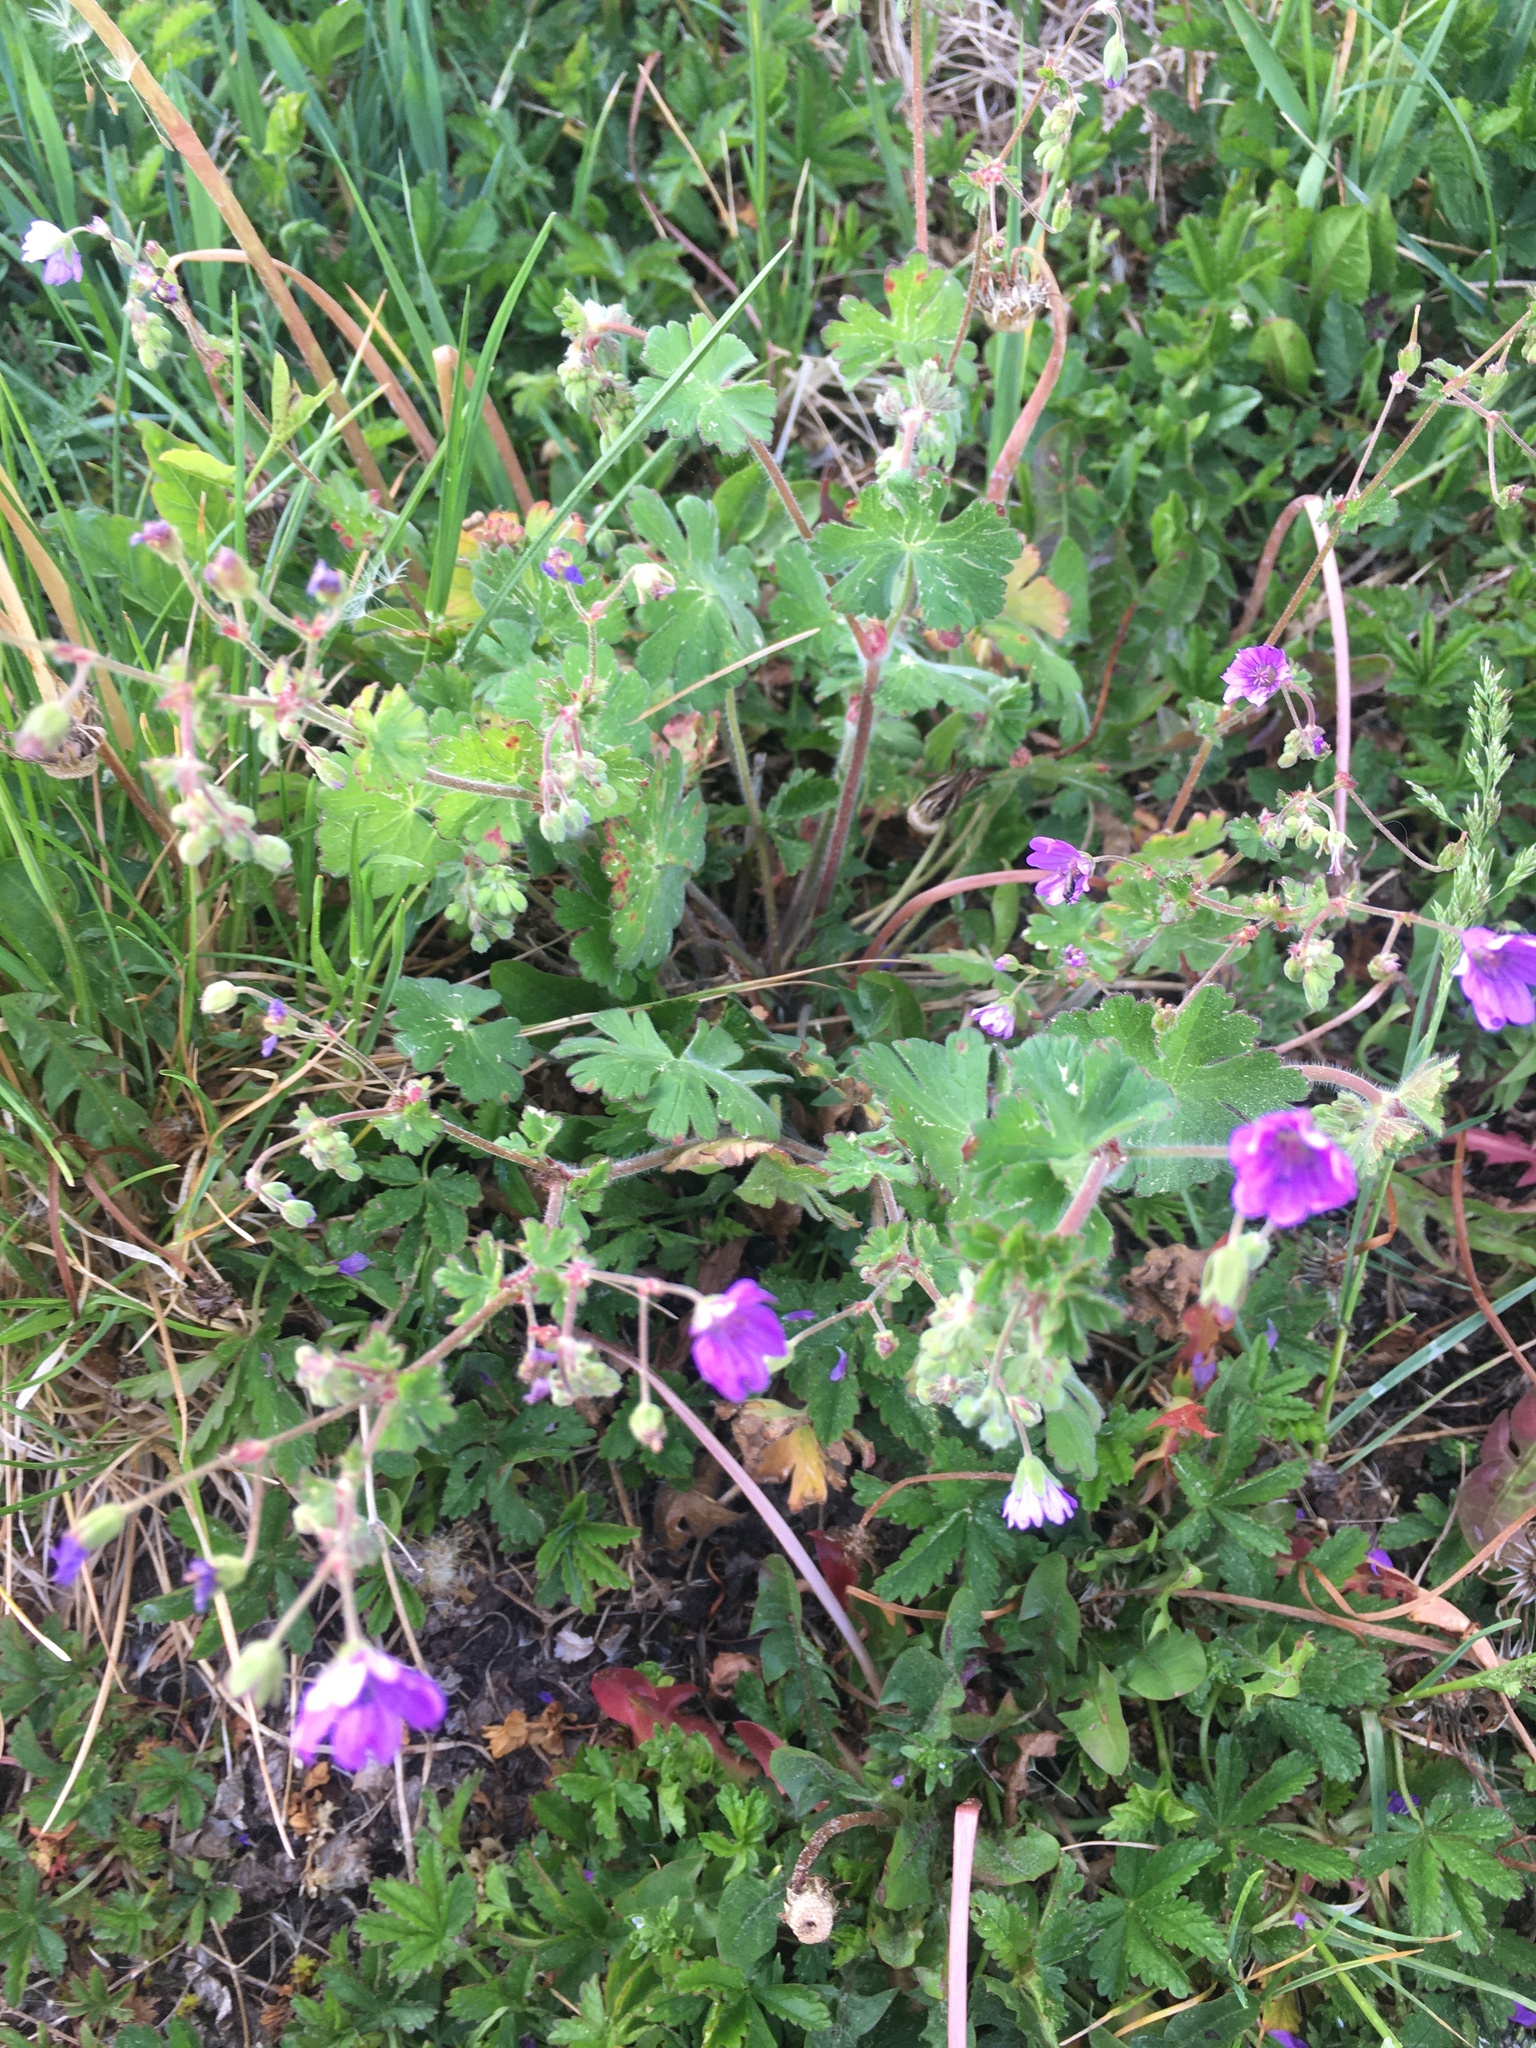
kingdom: Plantae
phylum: Tracheophyta
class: Magnoliopsida
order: Geraniales
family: Geraniaceae
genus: Geranium
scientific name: Geranium pyrenaicum
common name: Hedgerow crane's-bill
